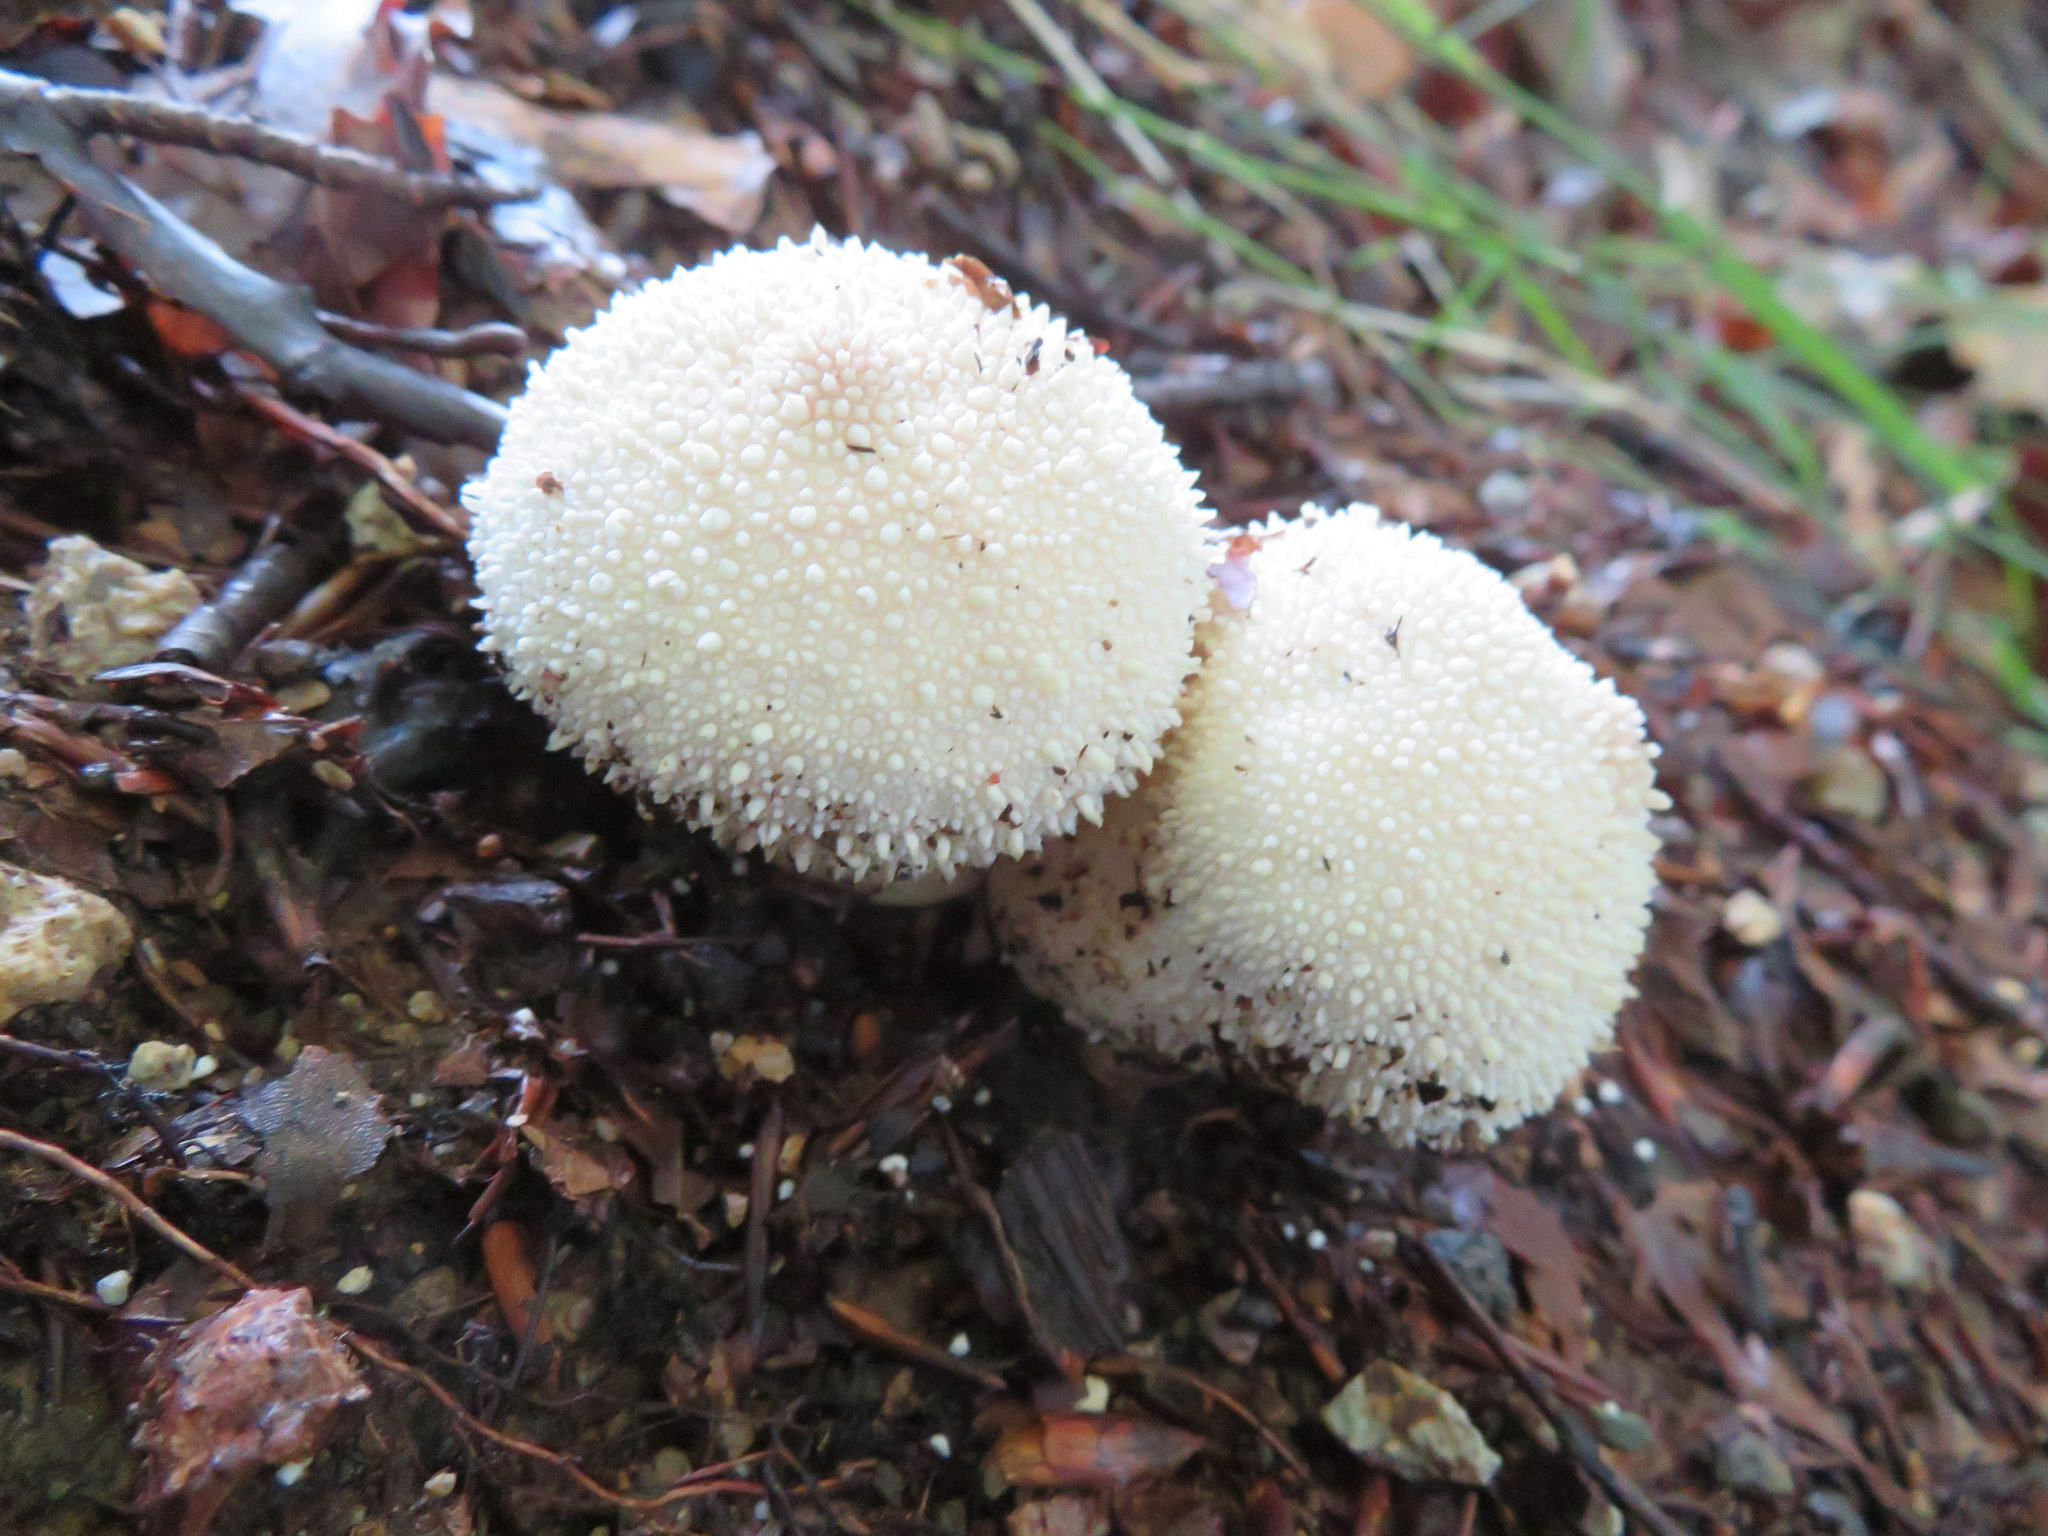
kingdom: Fungi
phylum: Basidiomycota
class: Agaricomycetes
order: Agaricales
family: Lycoperdaceae
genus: Lycoperdon
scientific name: Lycoperdon perlatum
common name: Common puffball
